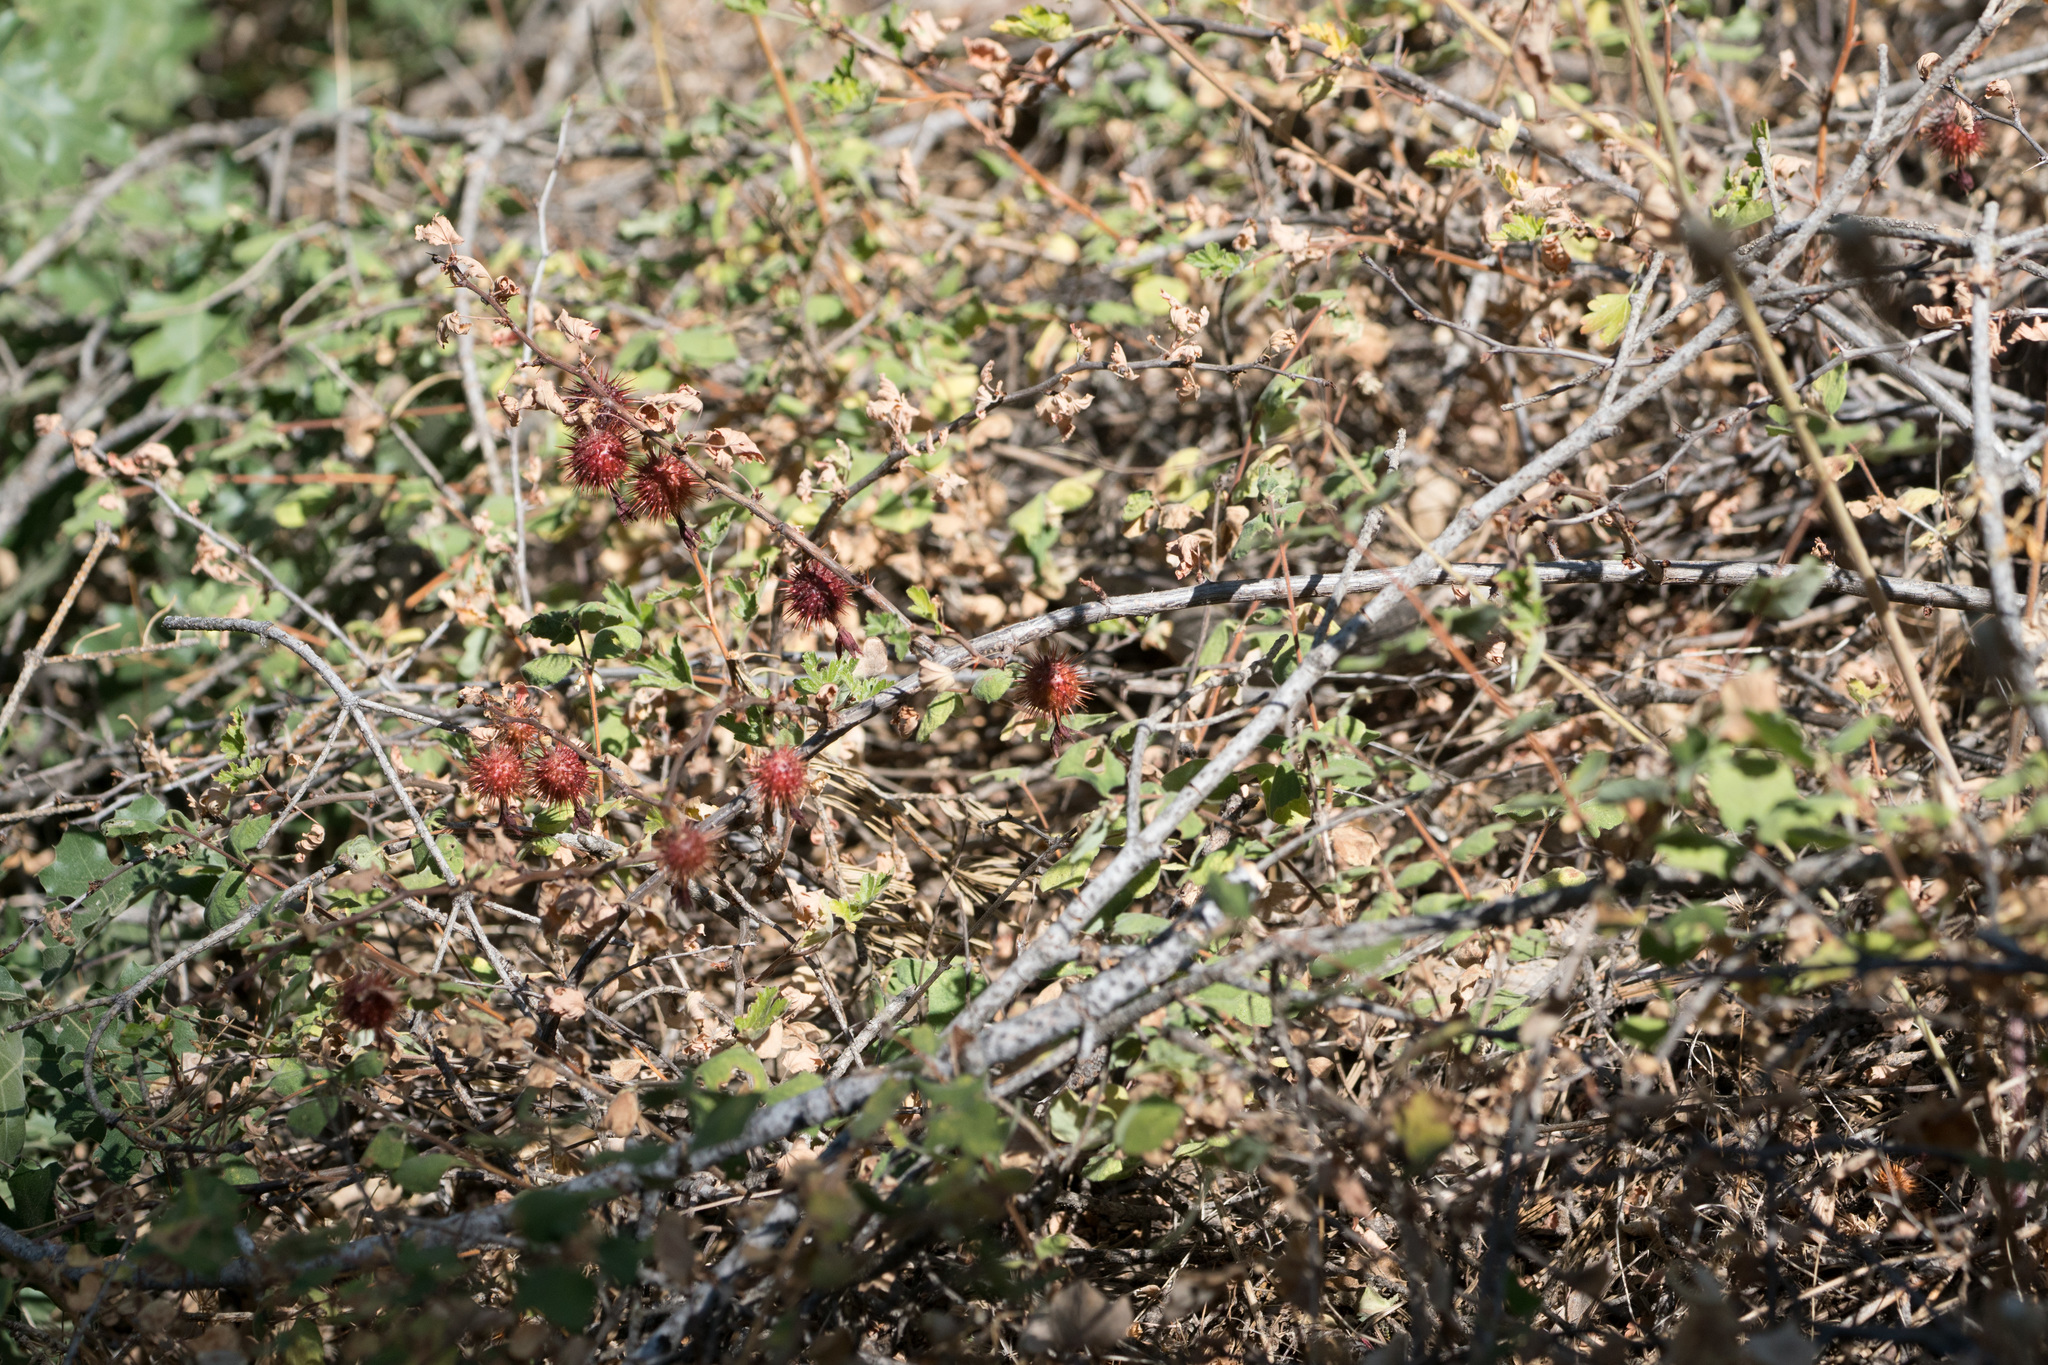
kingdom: Plantae
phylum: Tracheophyta
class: Magnoliopsida
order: Saxifragales
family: Grossulariaceae
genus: Ribes
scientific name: Ribes roezlii
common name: Sierra gooseberry
